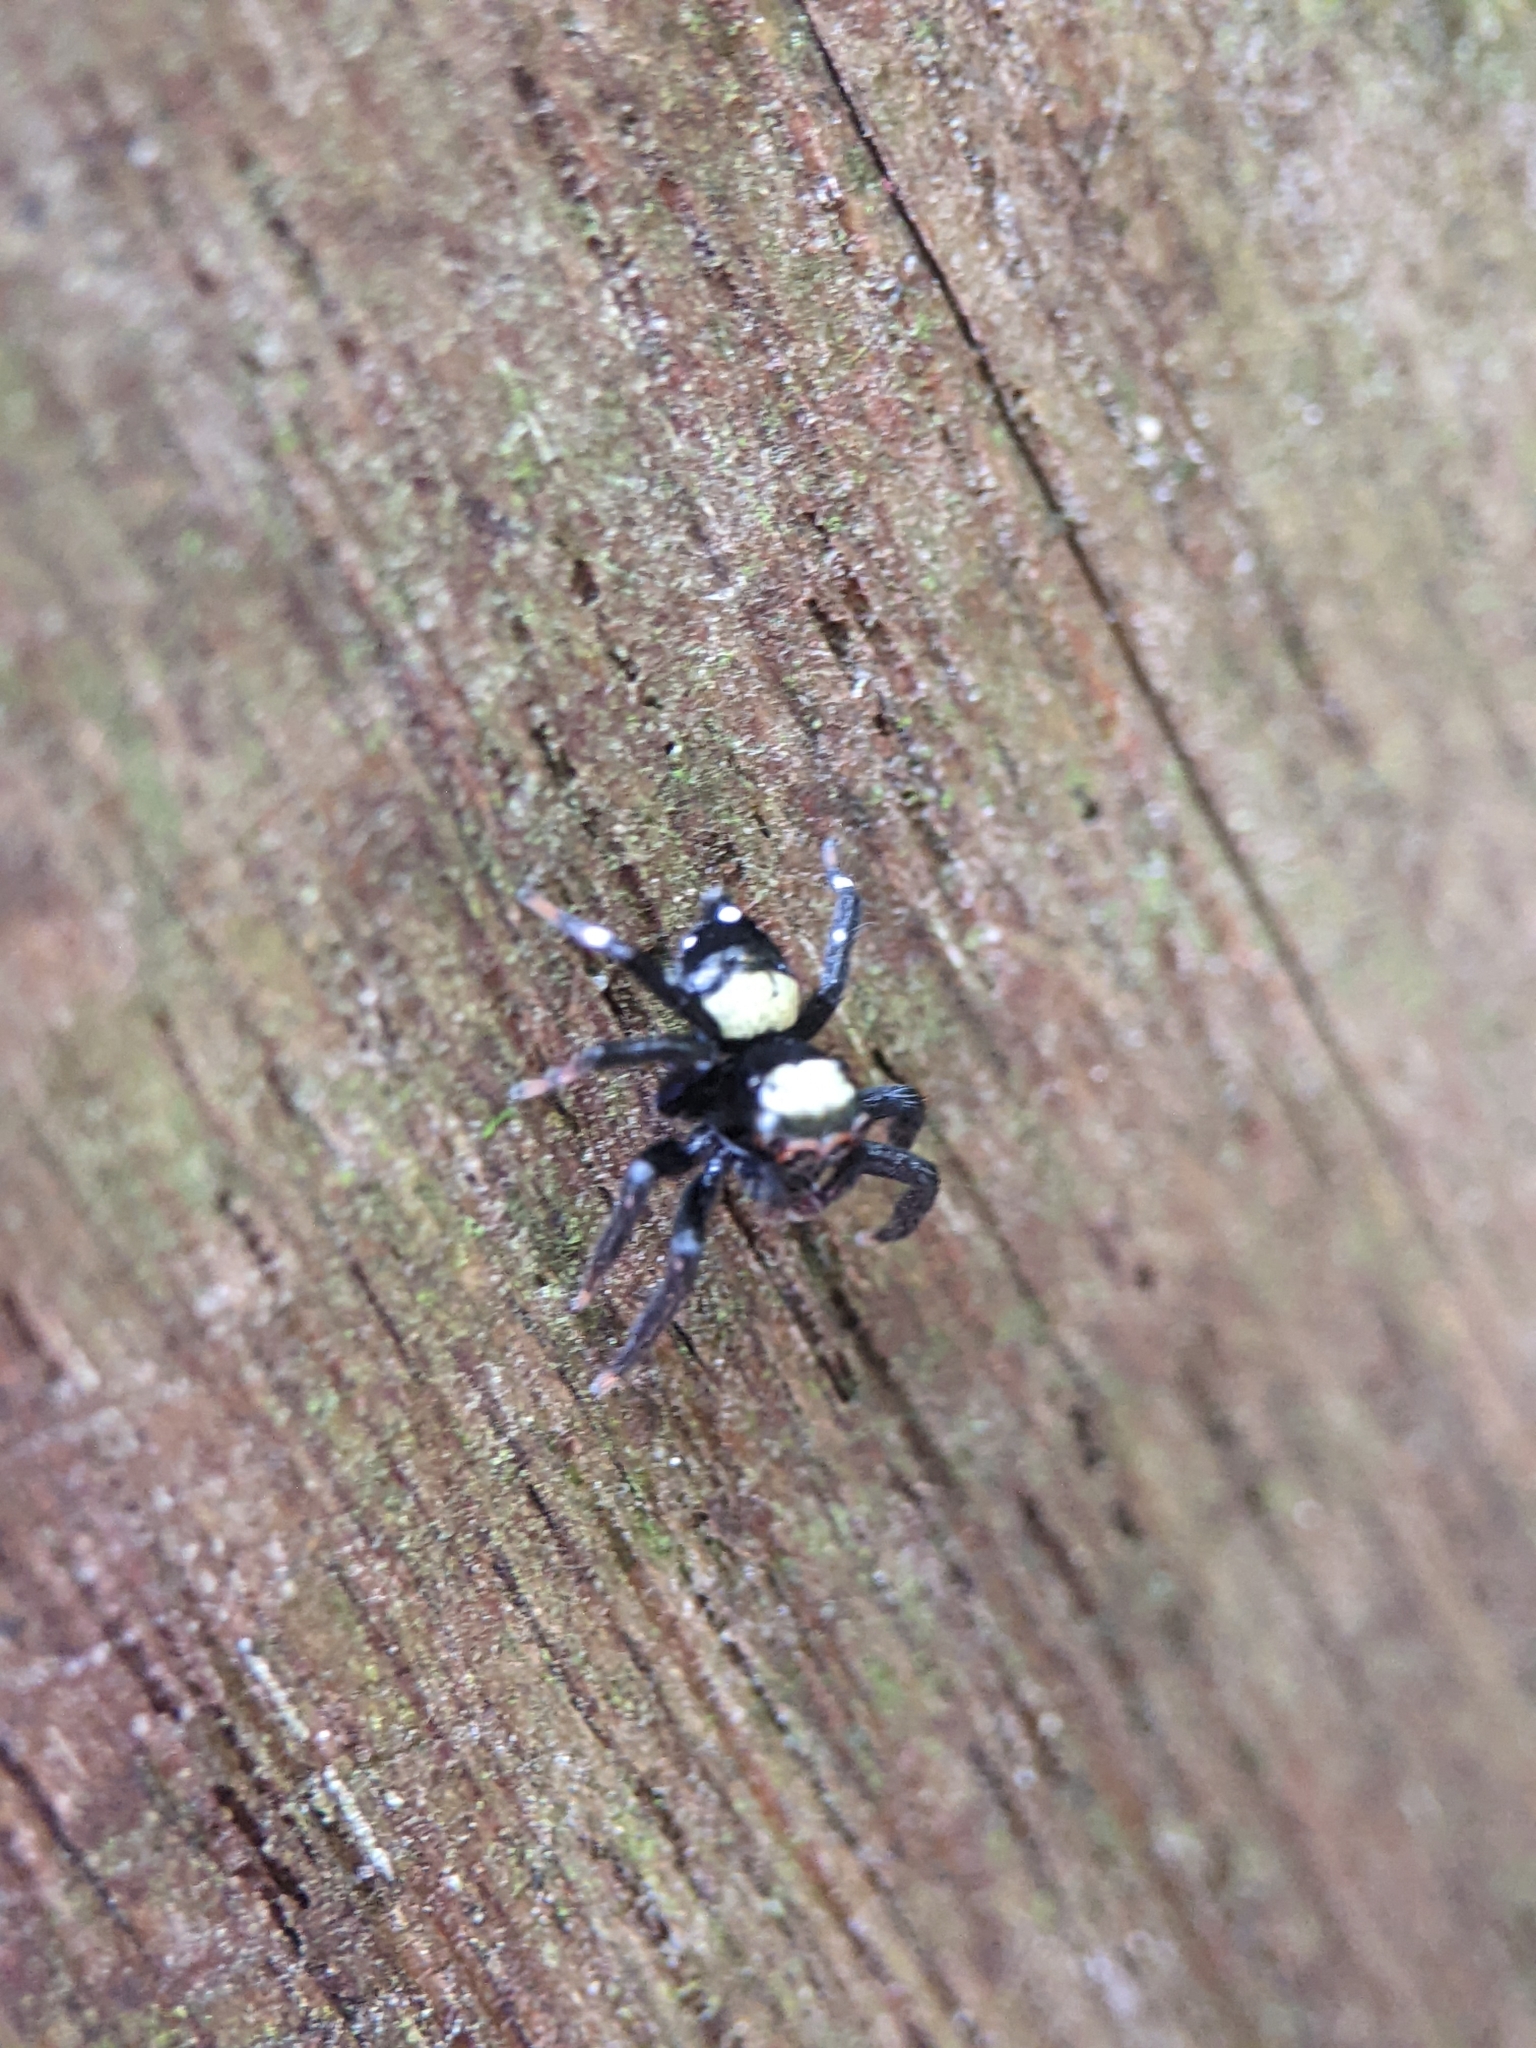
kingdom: Animalia
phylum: Arthropoda
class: Arachnida
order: Araneae
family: Salticidae
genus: Thorelliola
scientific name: Thorelliola ensifera
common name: Jumping spider
